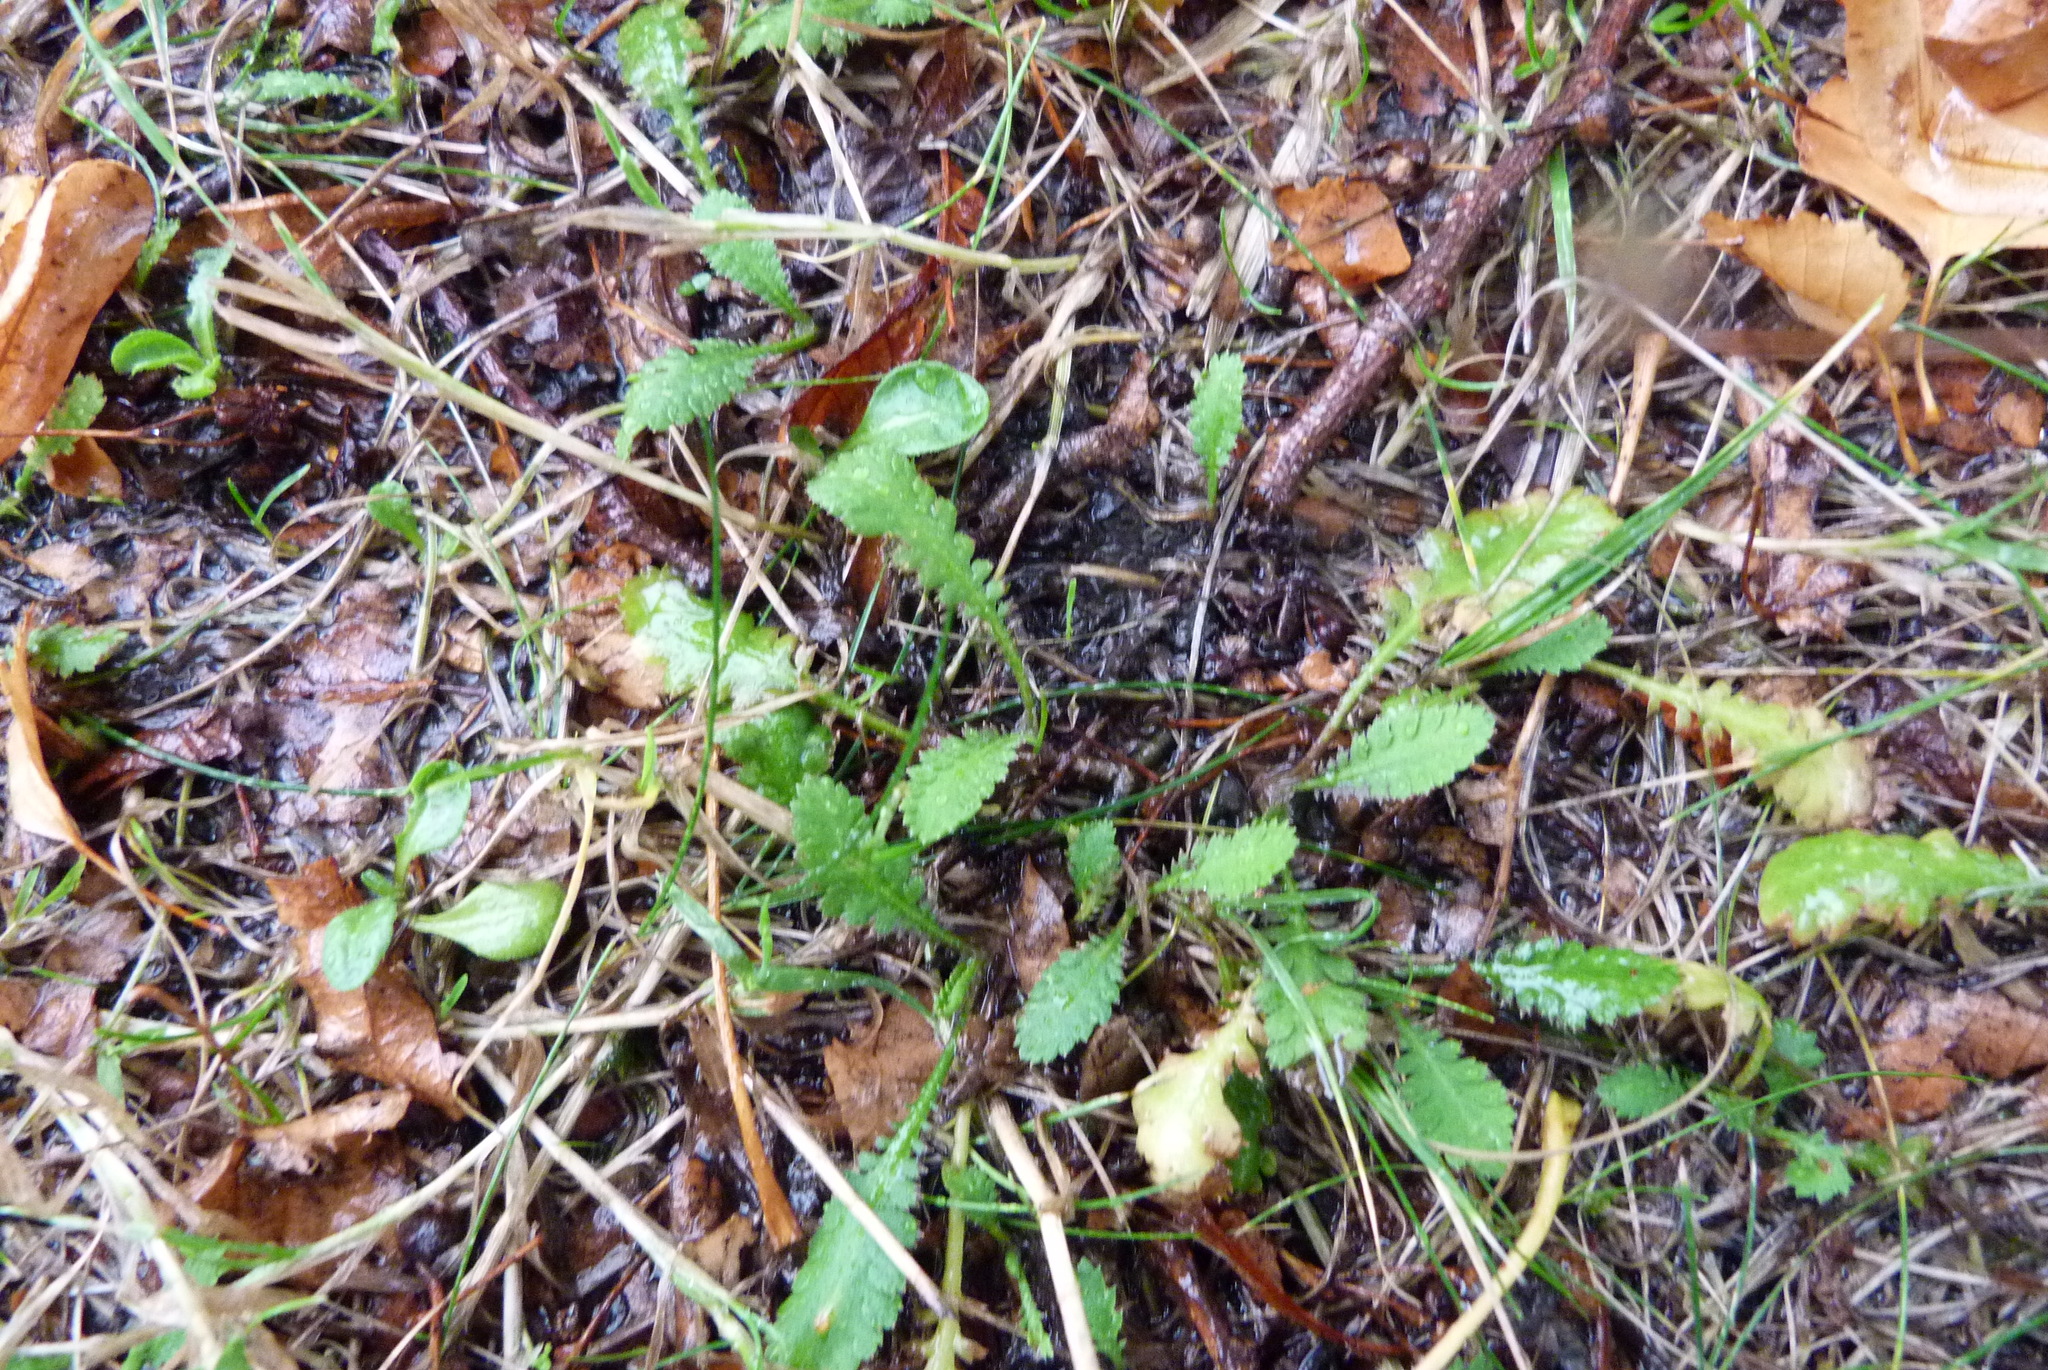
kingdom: Plantae
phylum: Tracheophyta
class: Magnoliopsida
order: Asterales
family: Asteraceae
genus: Leptinella
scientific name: Leptinella dioica
